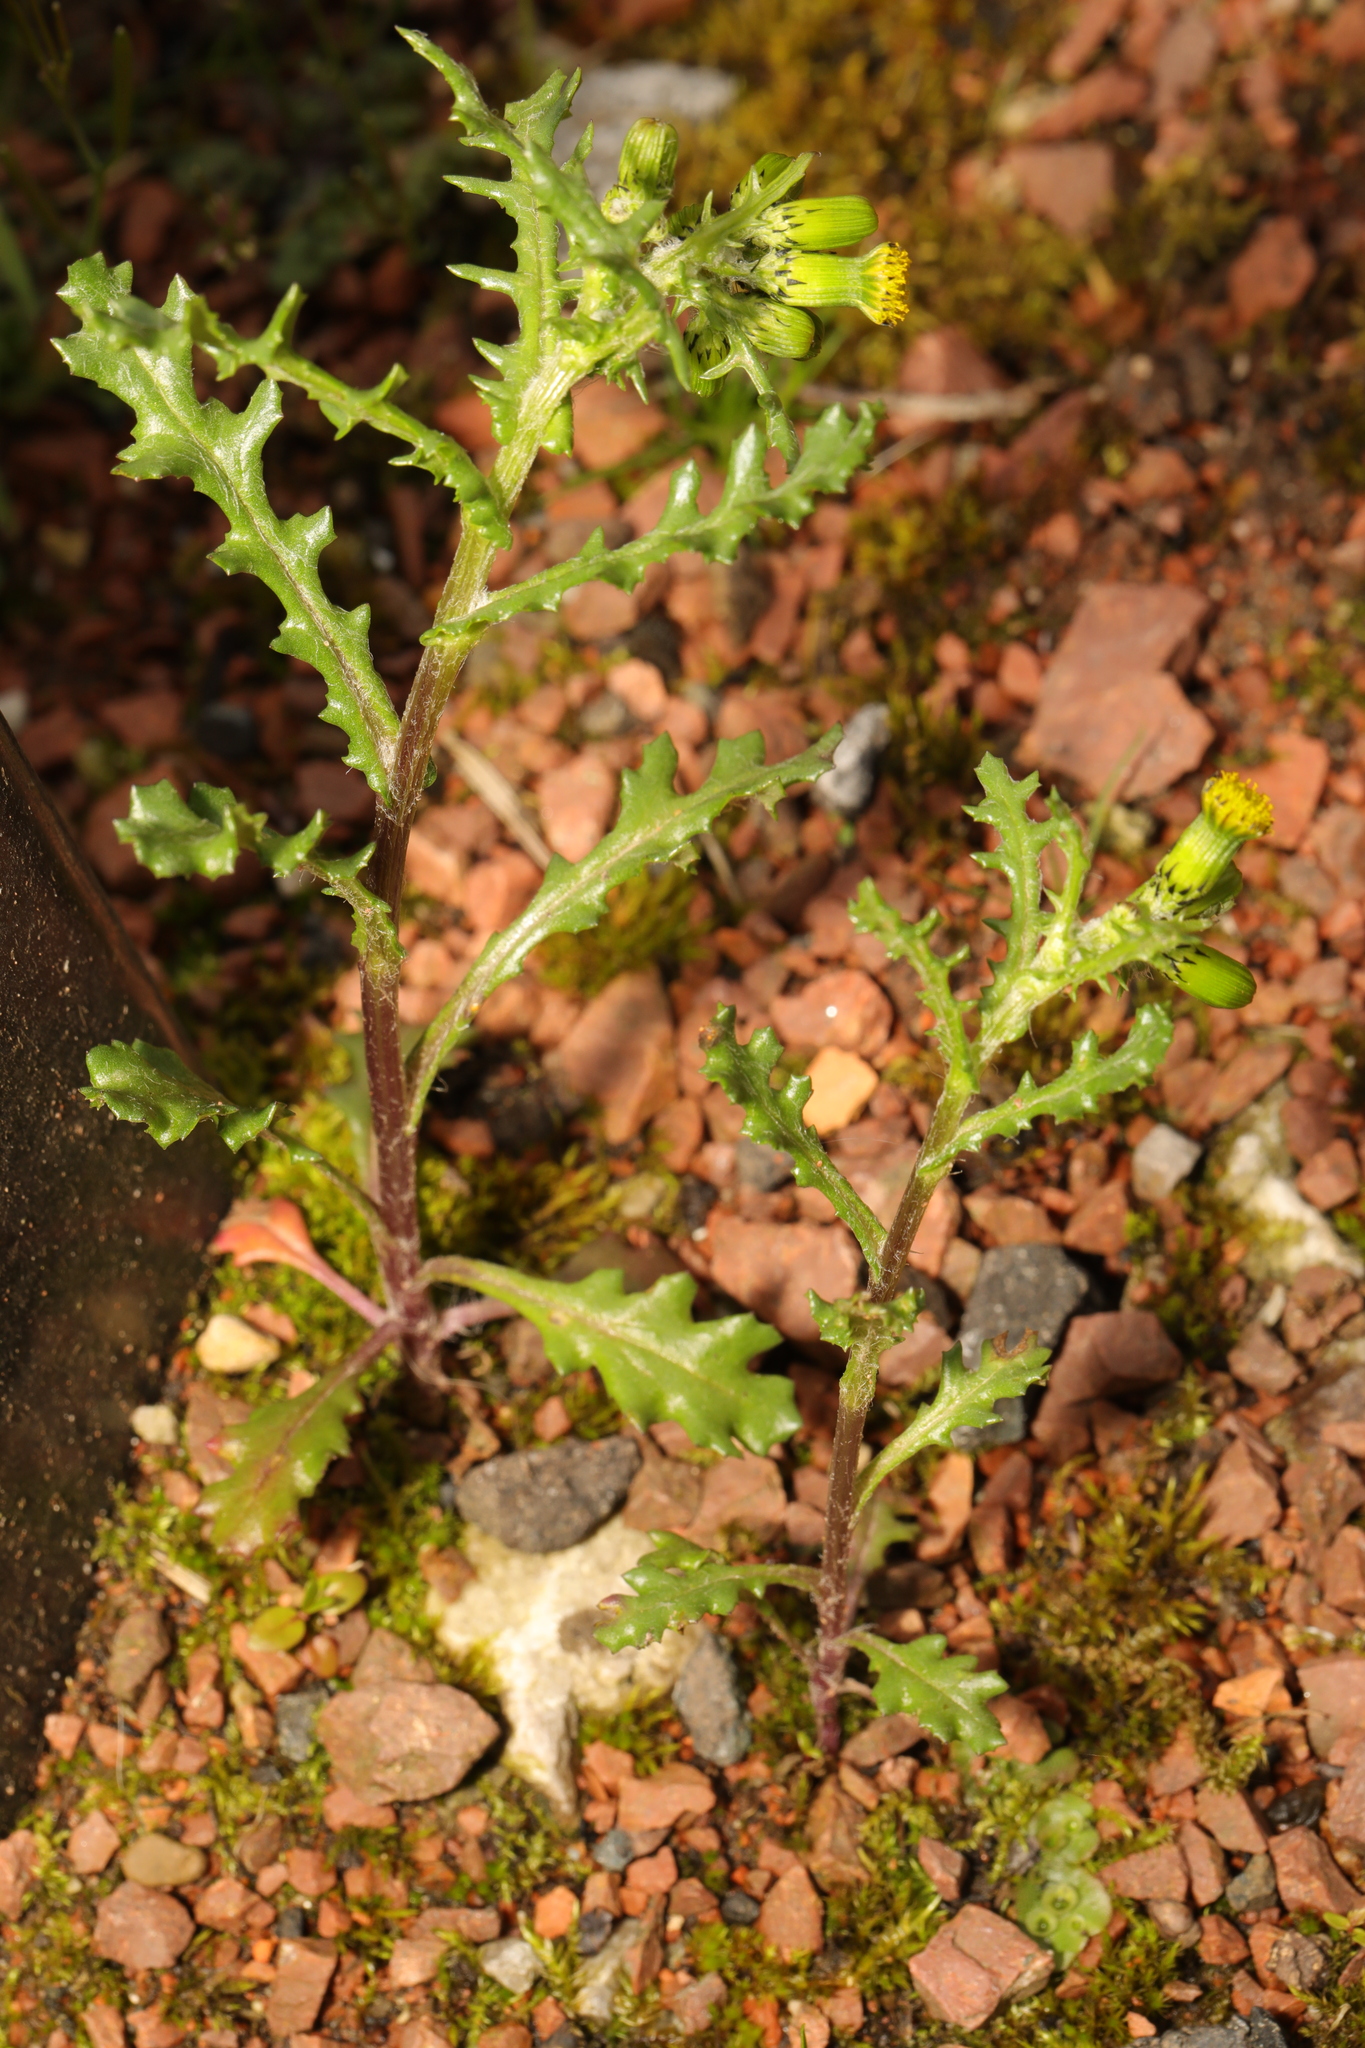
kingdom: Plantae
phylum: Tracheophyta
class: Magnoliopsida
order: Asterales
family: Asteraceae
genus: Senecio
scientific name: Senecio vulgaris
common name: Old-man-in-the-spring
